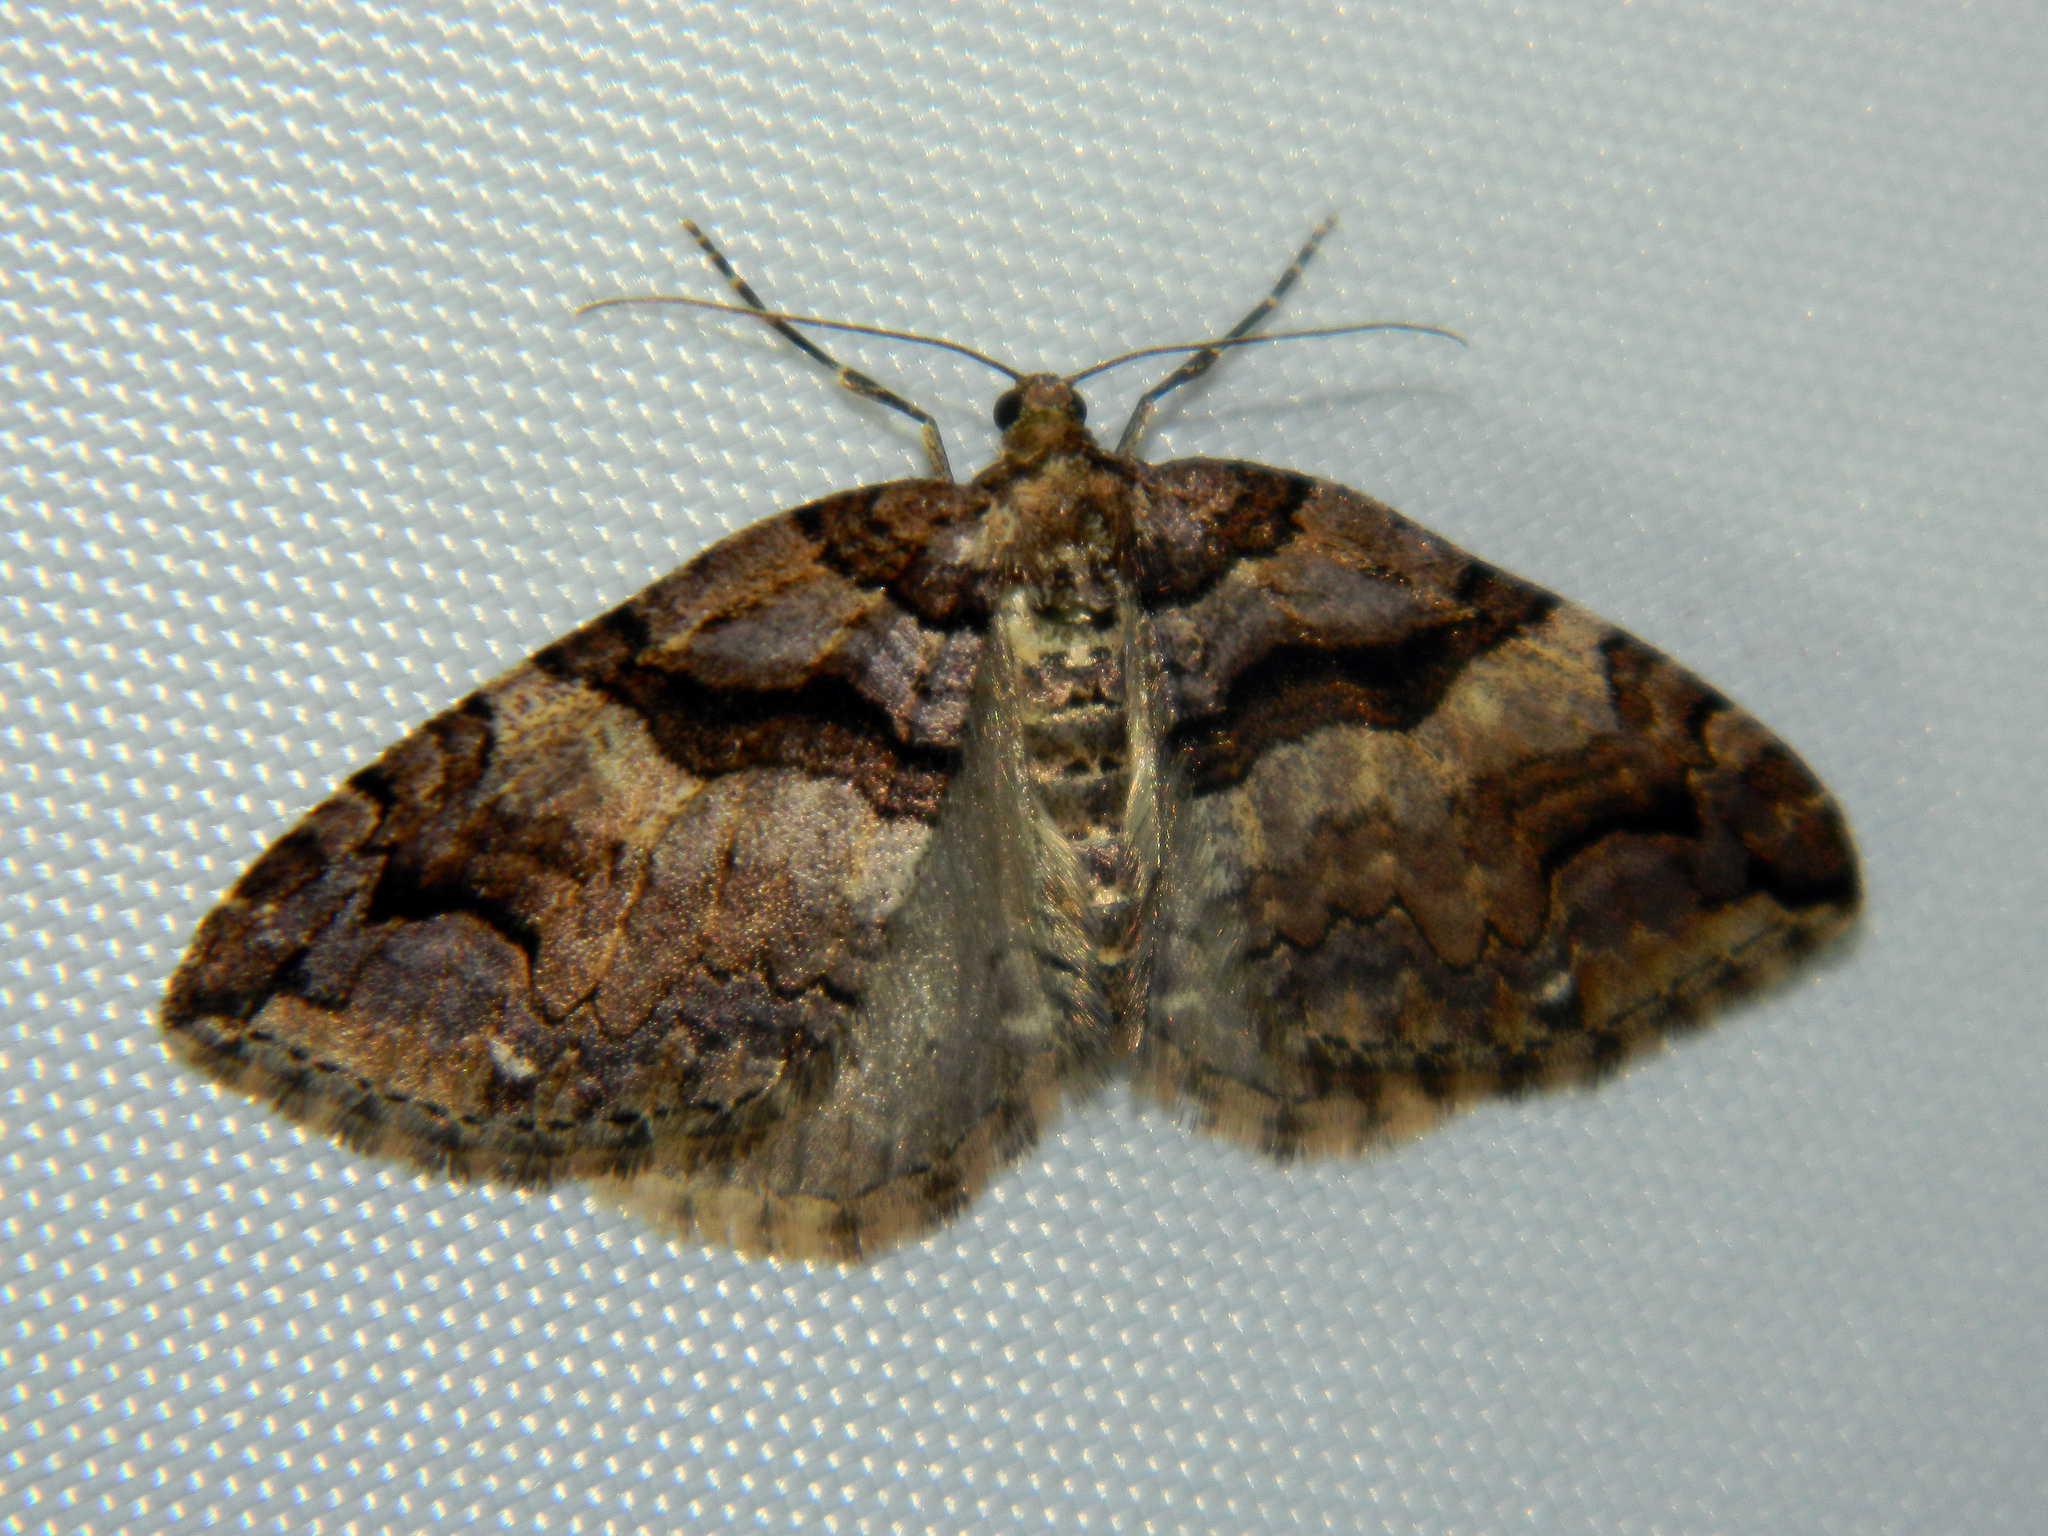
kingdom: Animalia
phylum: Arthropoda
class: Insecta
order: Lepidoptera
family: Geometridae
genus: Anticlea
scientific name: Anticlea vasiliata
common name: Variable carpet
